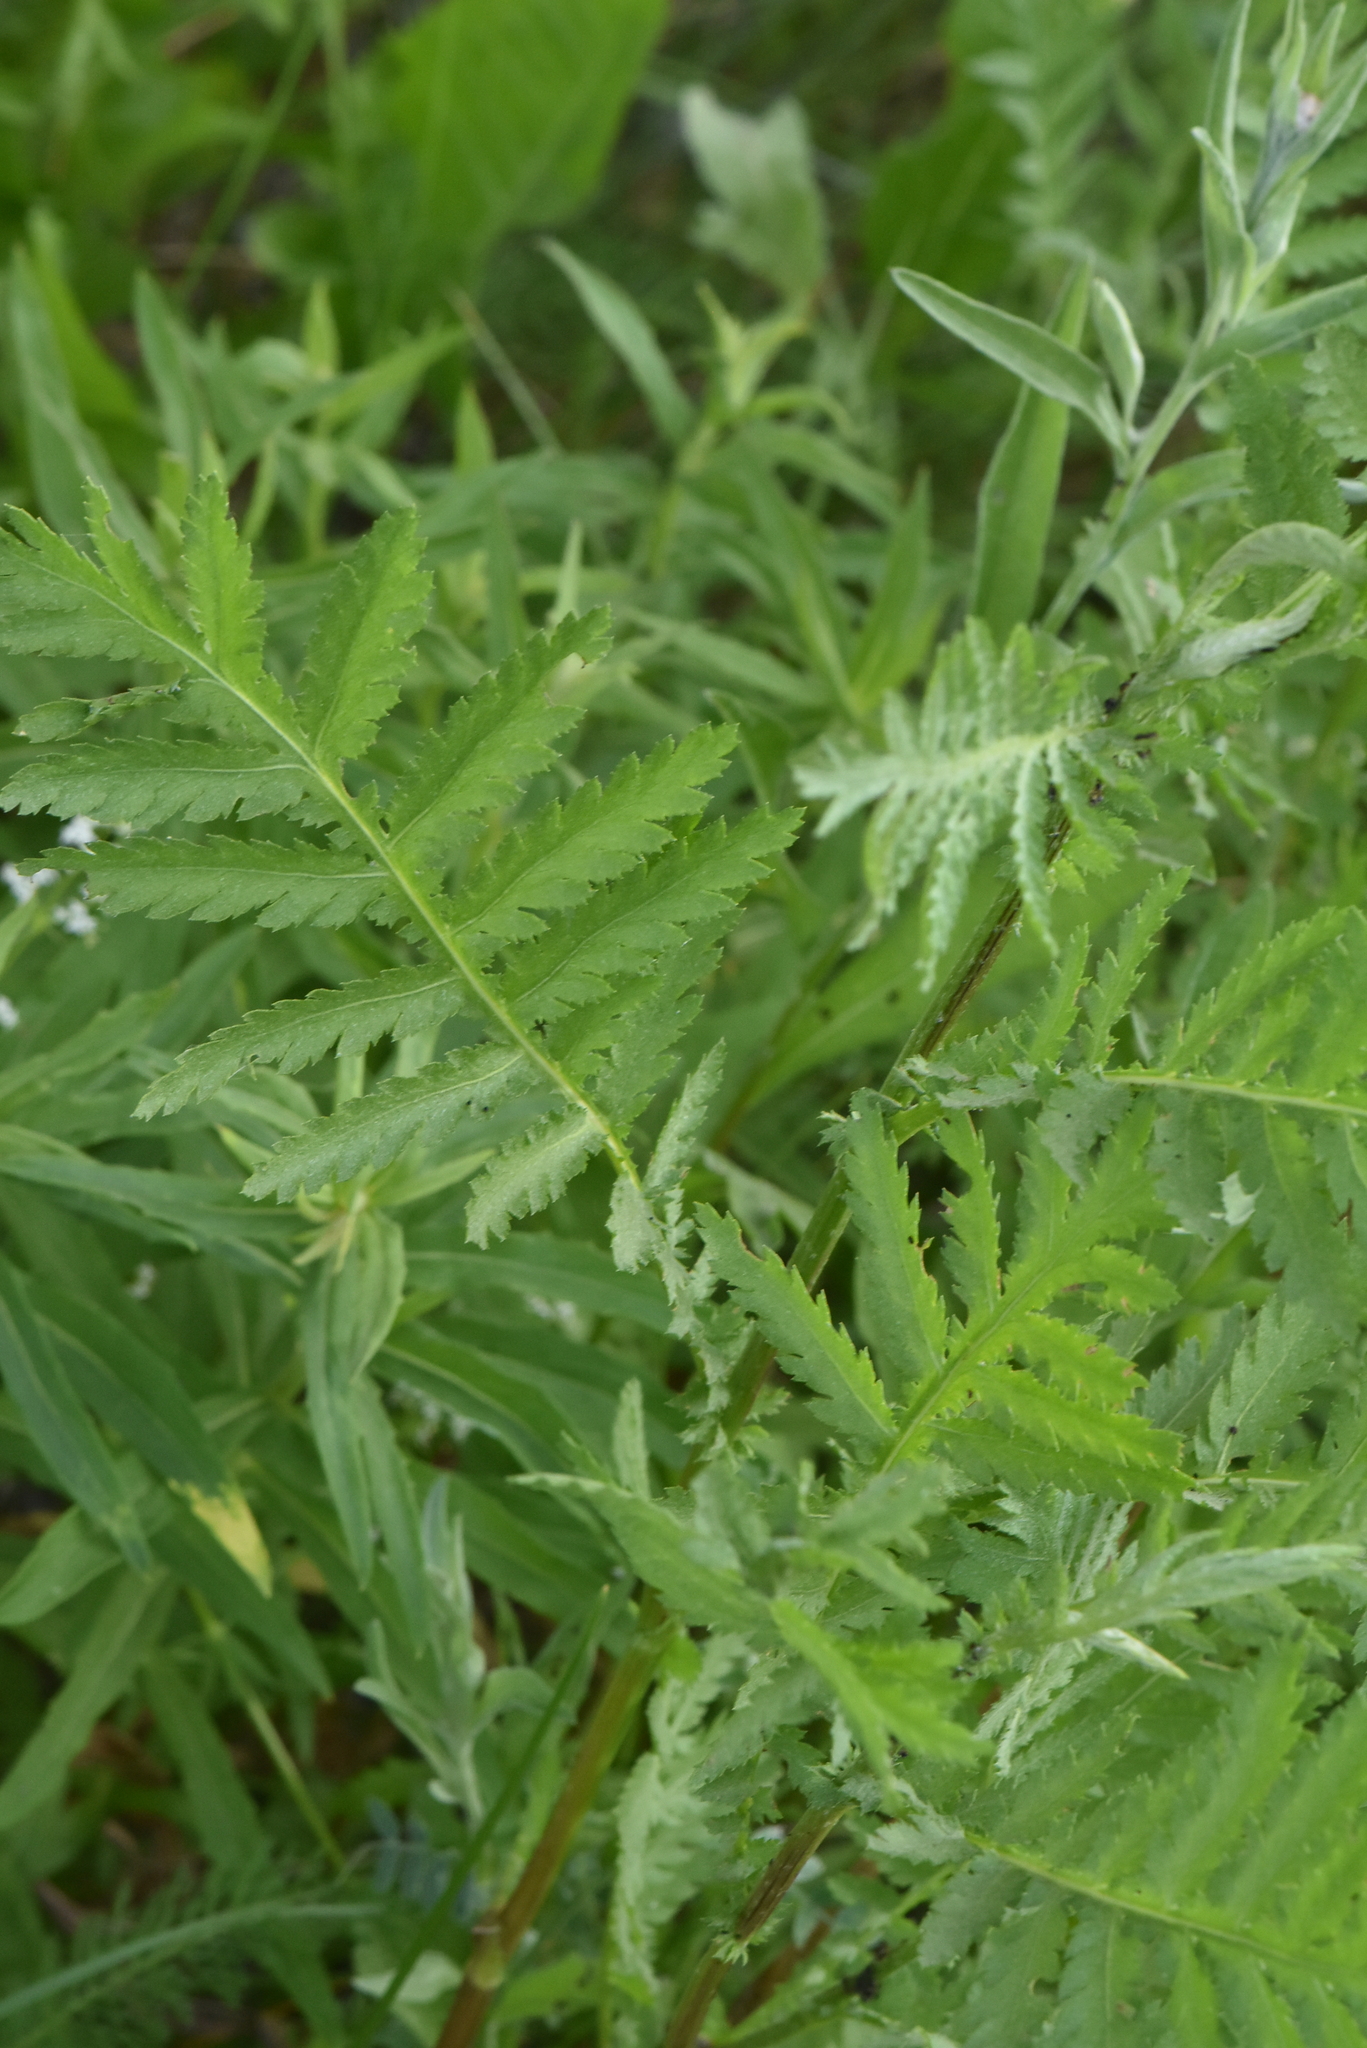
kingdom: Plantae
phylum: Tracheophyta
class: Magnoliopsida
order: Asterales
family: Asteraceae
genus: Tanacetum
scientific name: Tanacetum vulgare
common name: Common tansy
